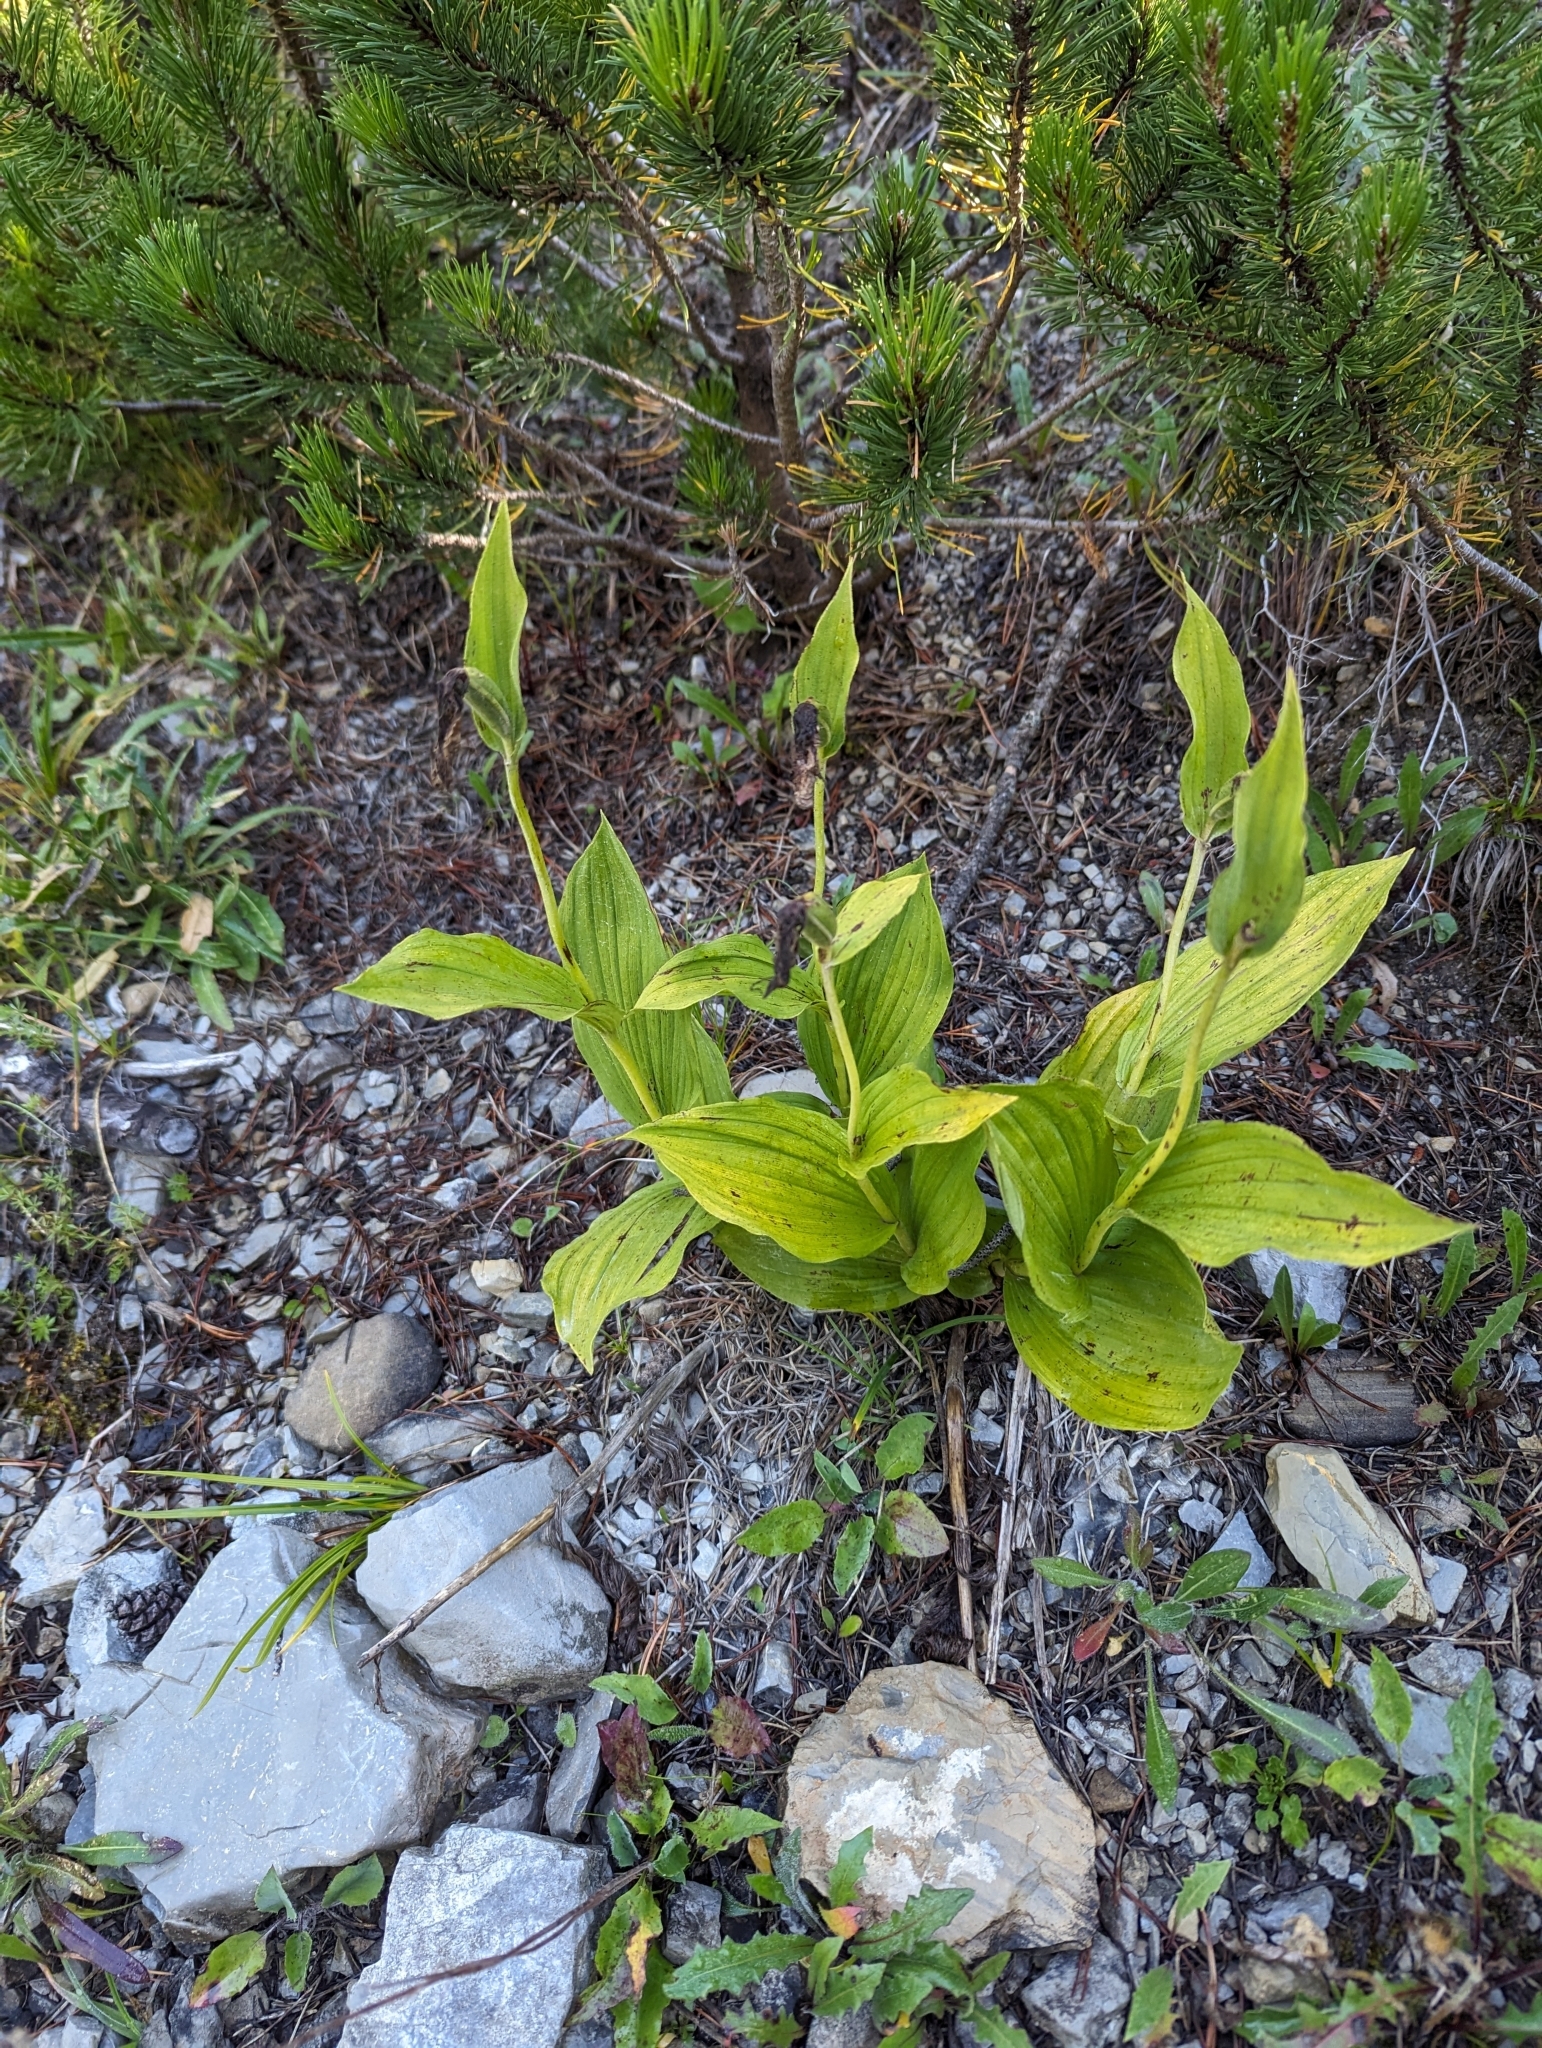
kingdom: Plantae
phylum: Tracheophyta
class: Liliopsida
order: Asparagales
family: Orchidaceae
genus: Cypripedium
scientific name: Cypripedium calceolus
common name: Lady's-slipper
